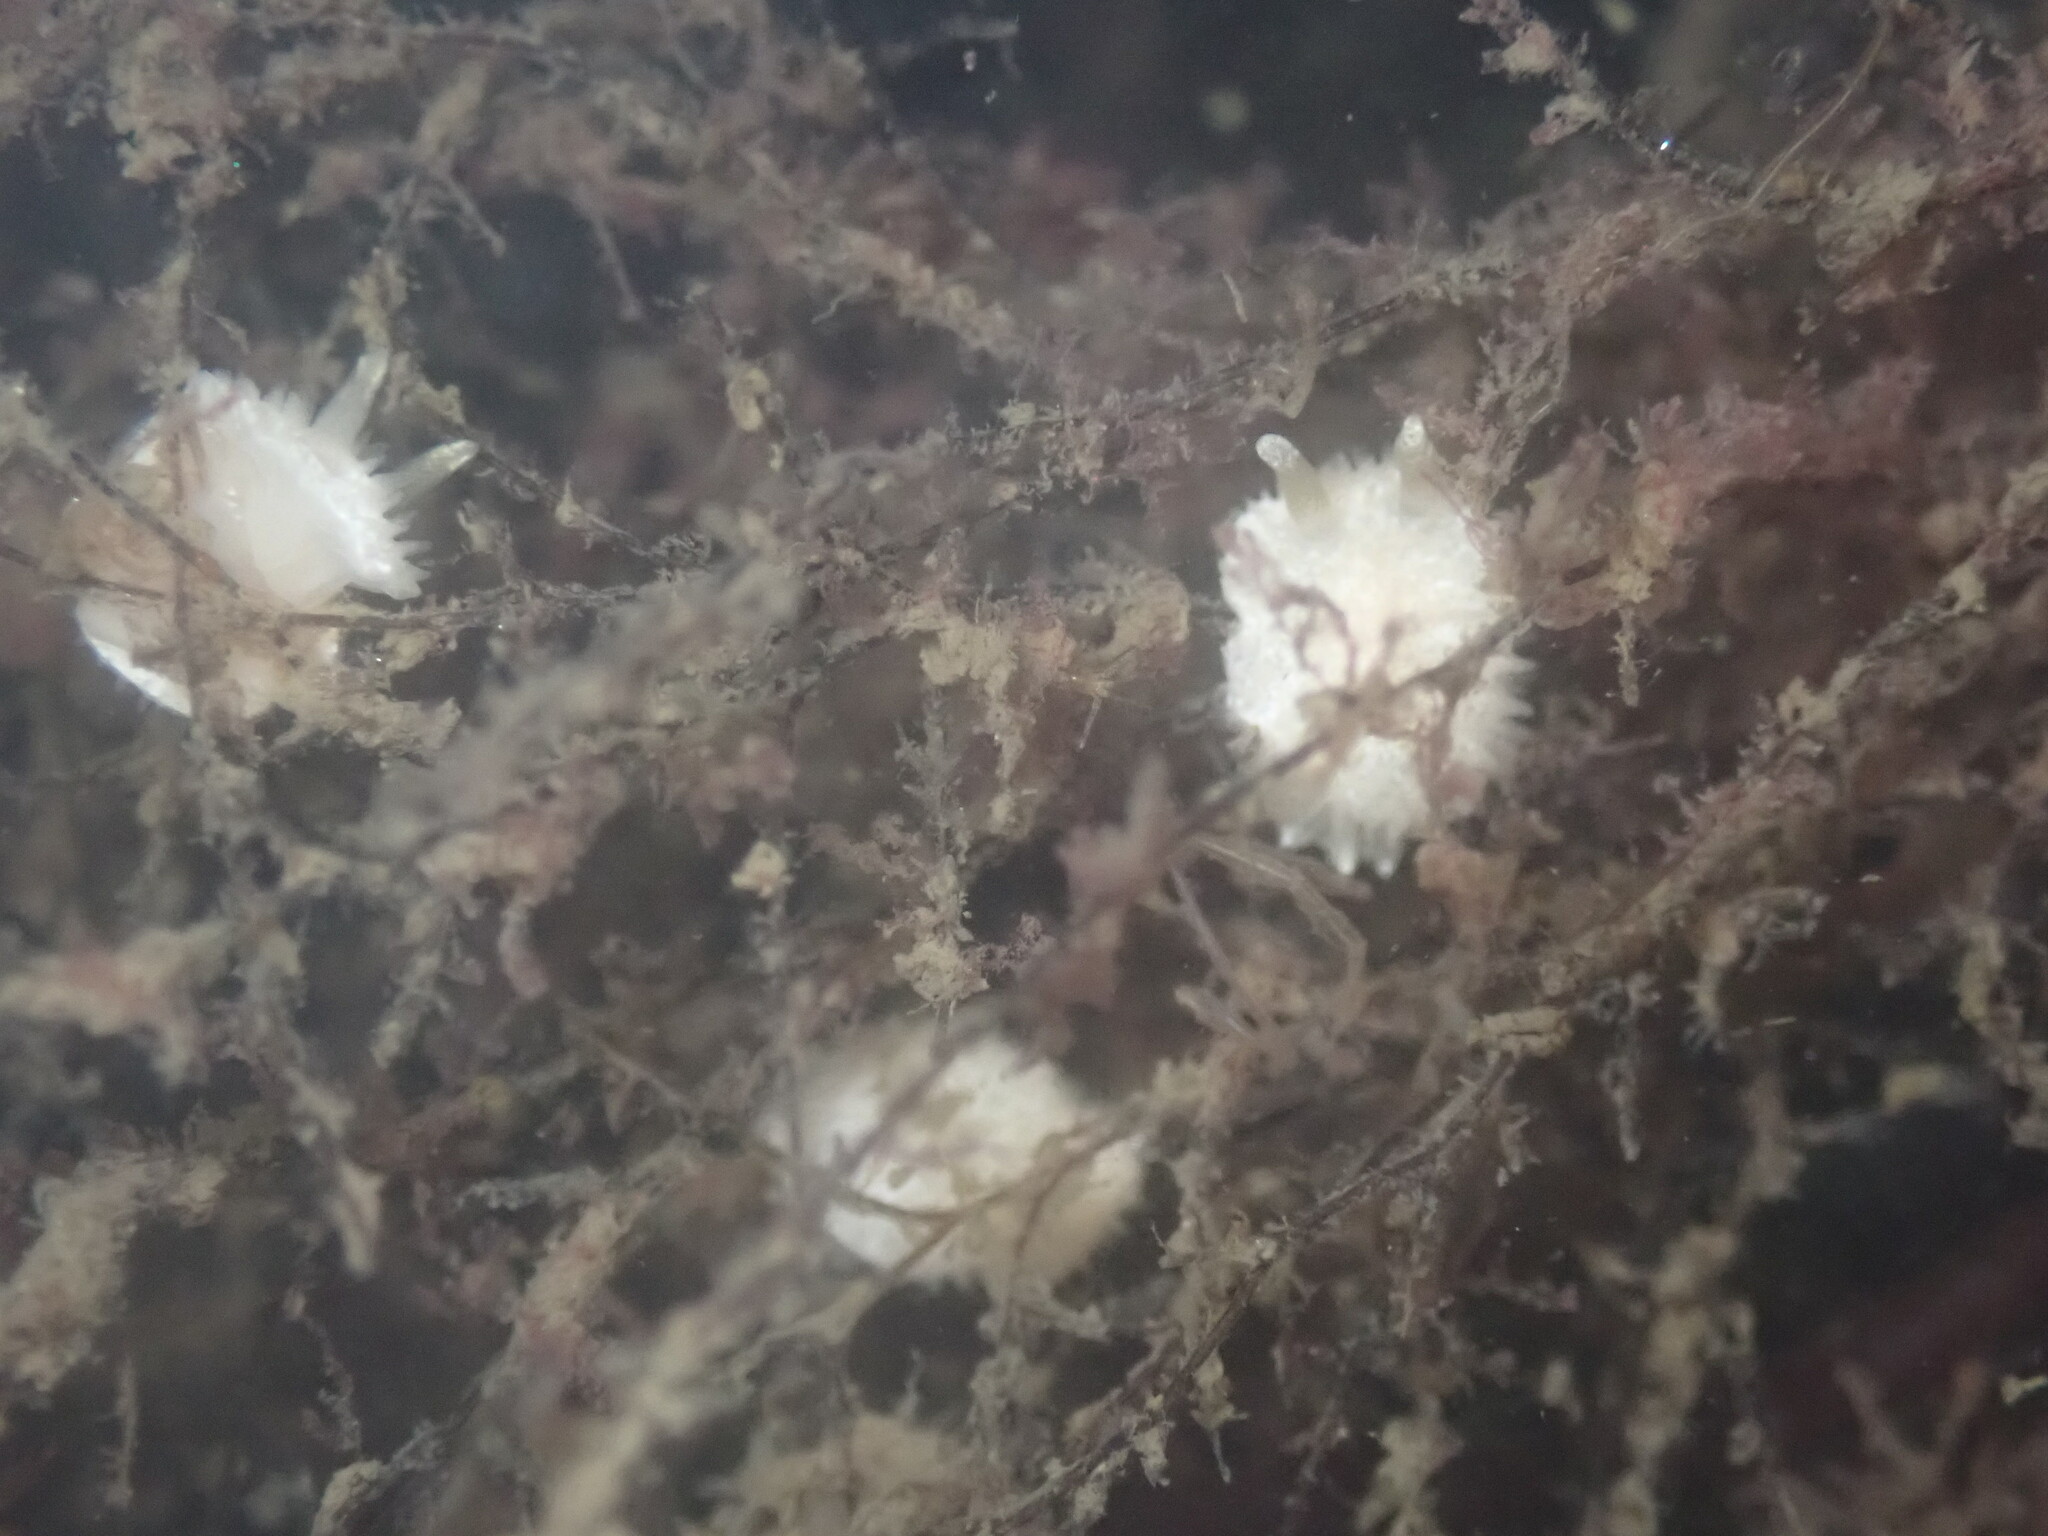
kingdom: Animalia
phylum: Mollusca
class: Gastropoda
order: Nudibranchia
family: Calycidorididae
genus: Diaphorodoris
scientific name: Diaphorodoris lirulatocauda
